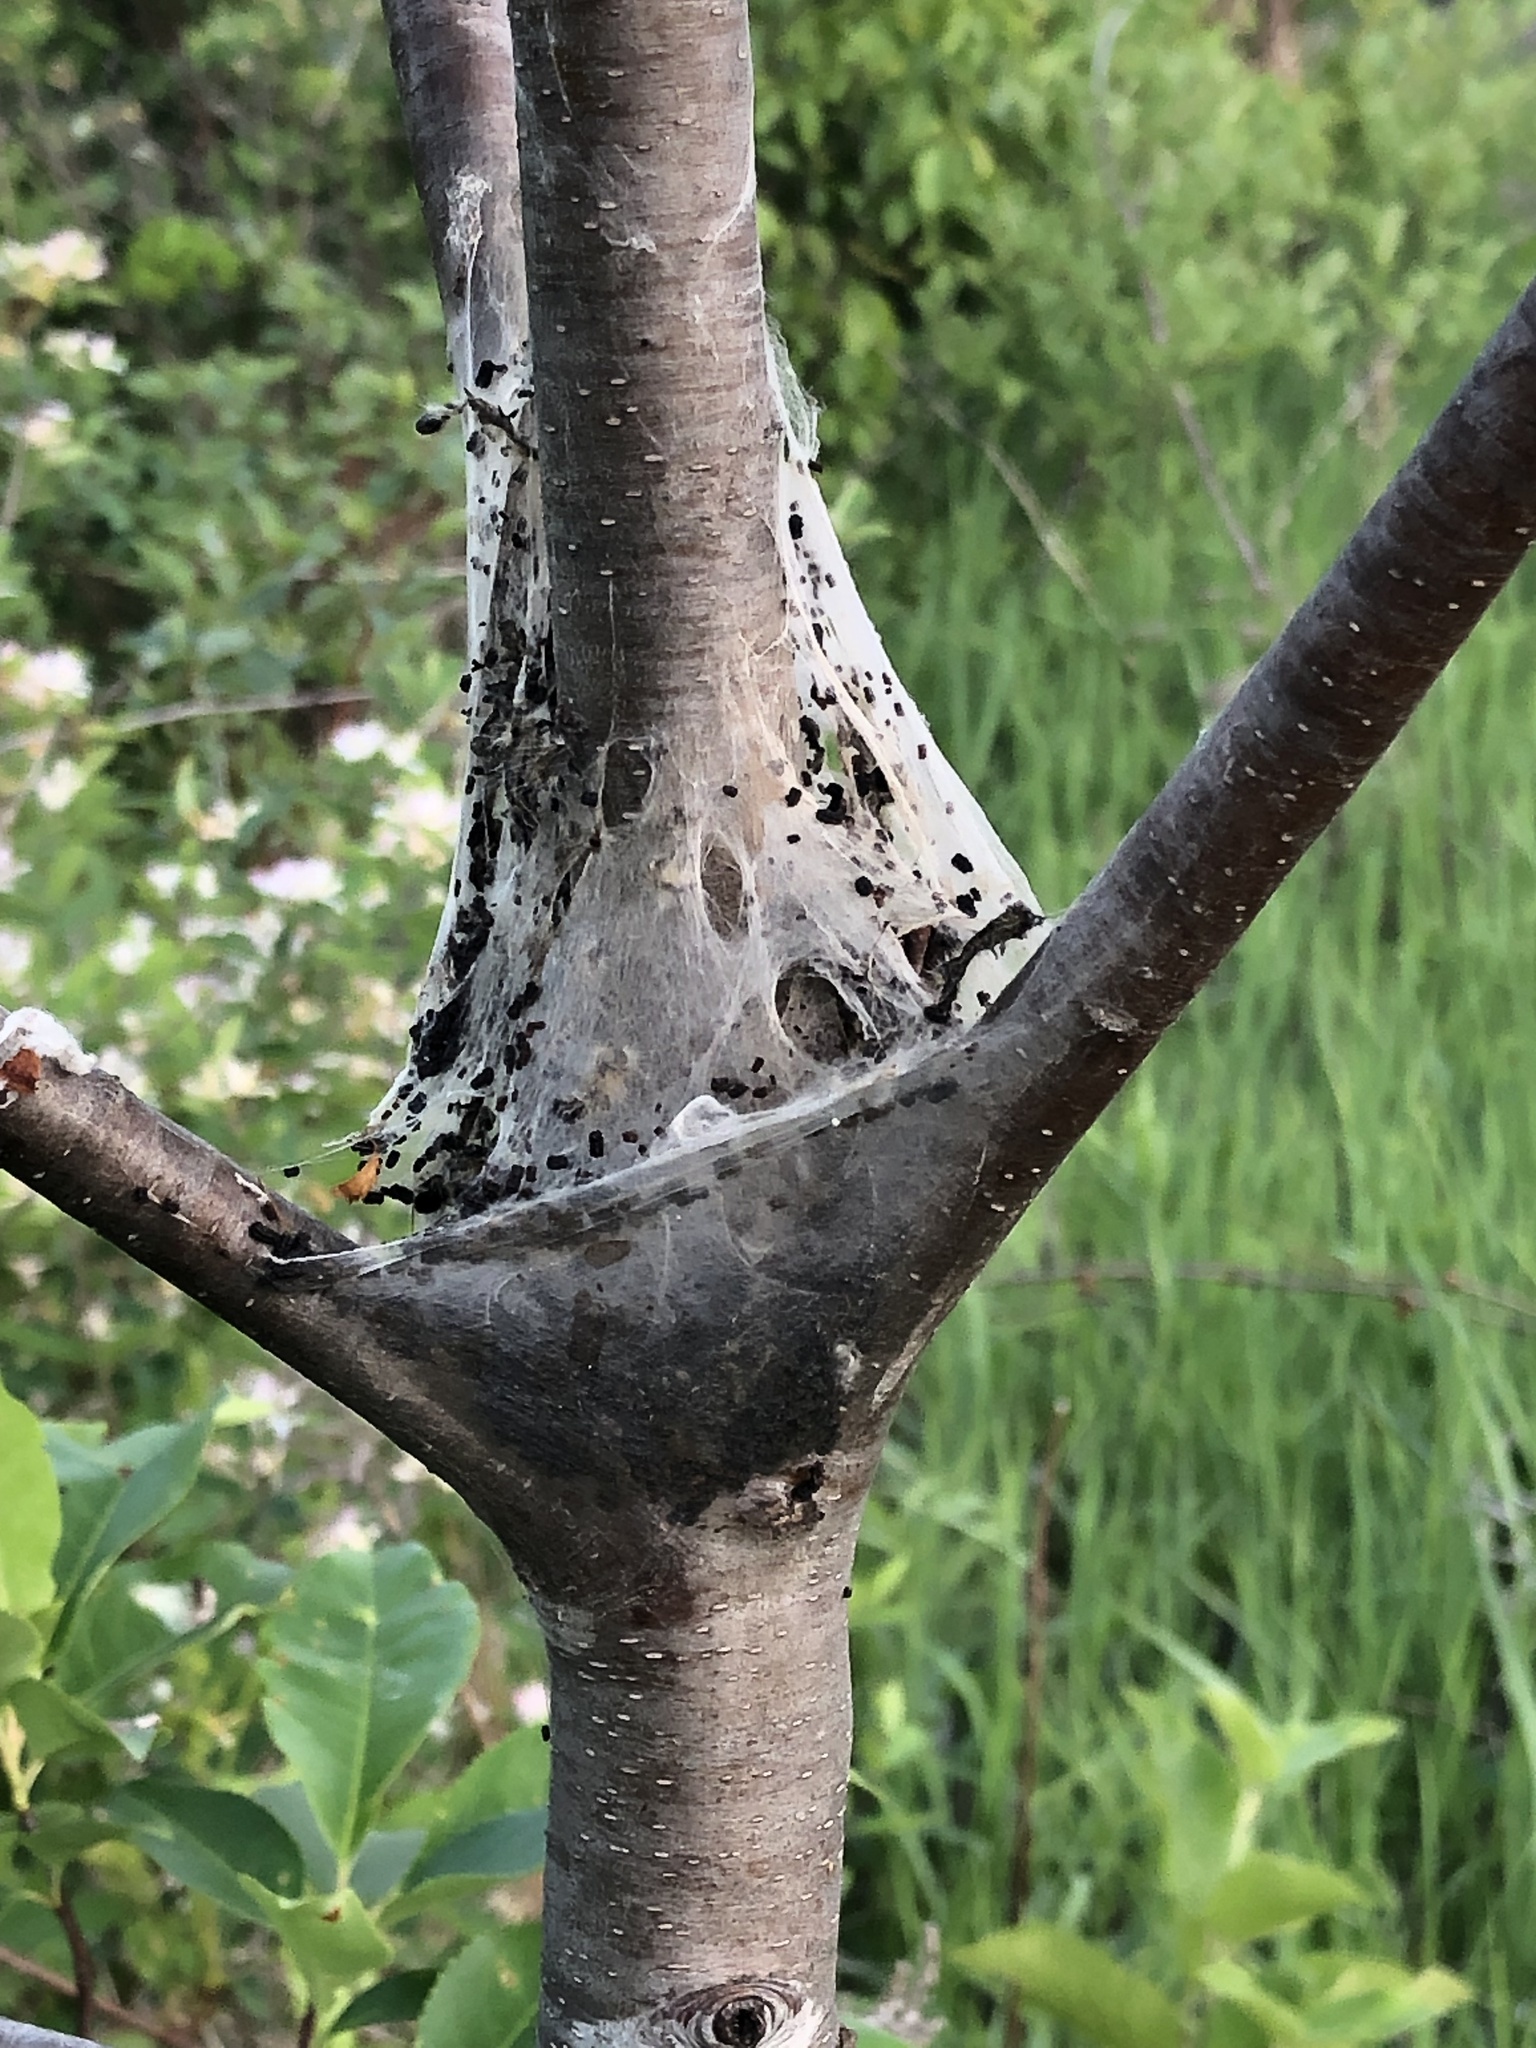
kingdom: Animalia
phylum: Arthropoda
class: Insecta
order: Lepidoptera
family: Lasiocampidae
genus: Malacosoma
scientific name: Malacosoma americana
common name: Eastern tent caterpillar moth
